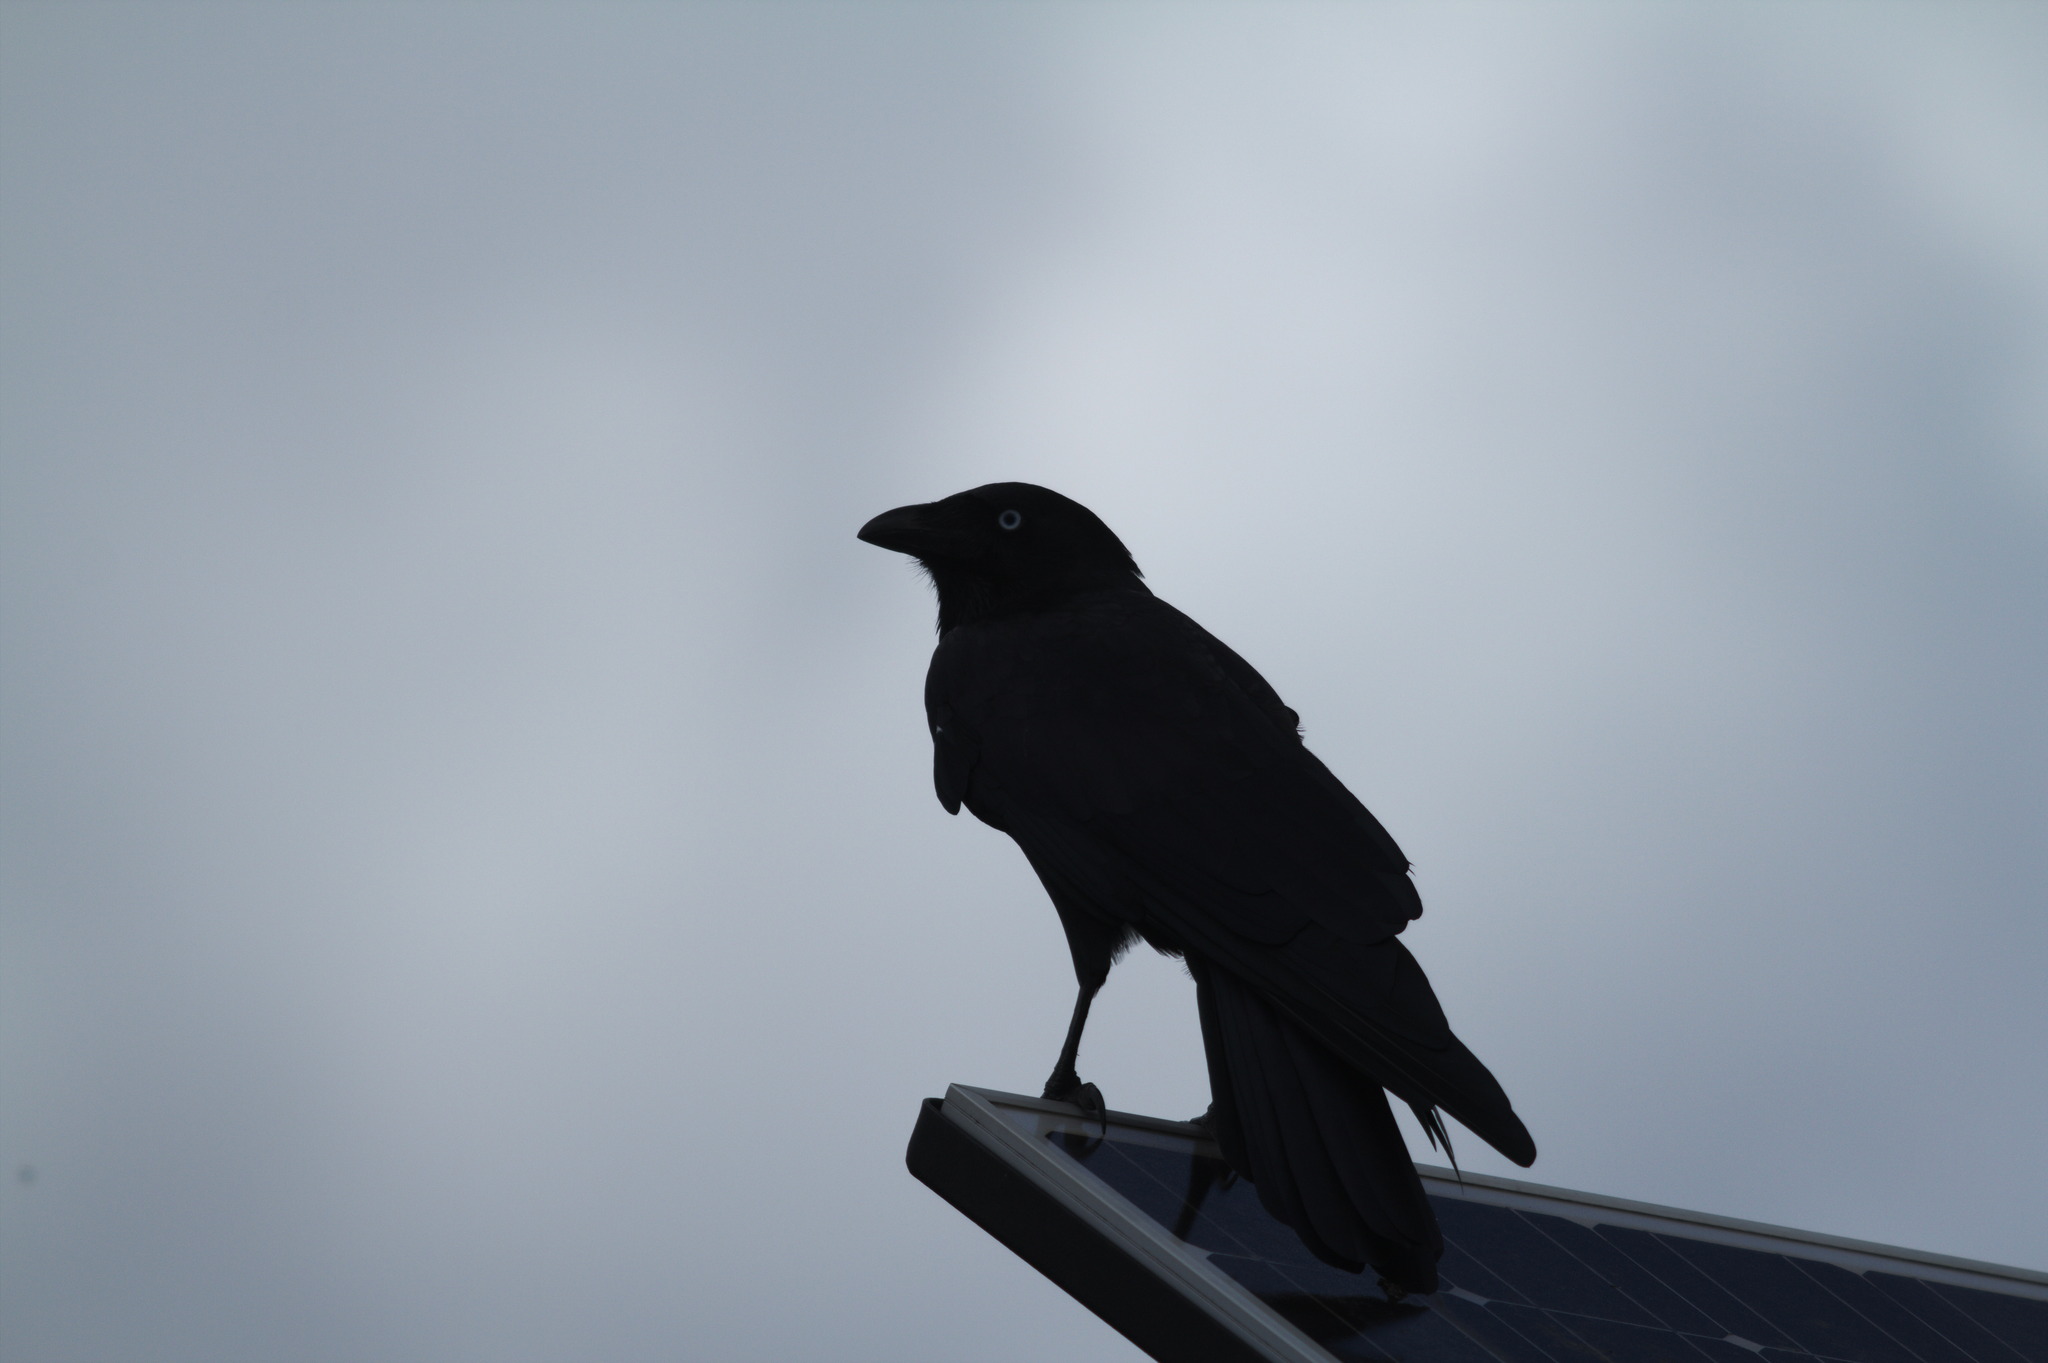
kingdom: Animalia
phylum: Chordata
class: Aves
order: Passeriformes
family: Corvidae
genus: Corvus
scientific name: Corvus orru
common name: Torresian crow
